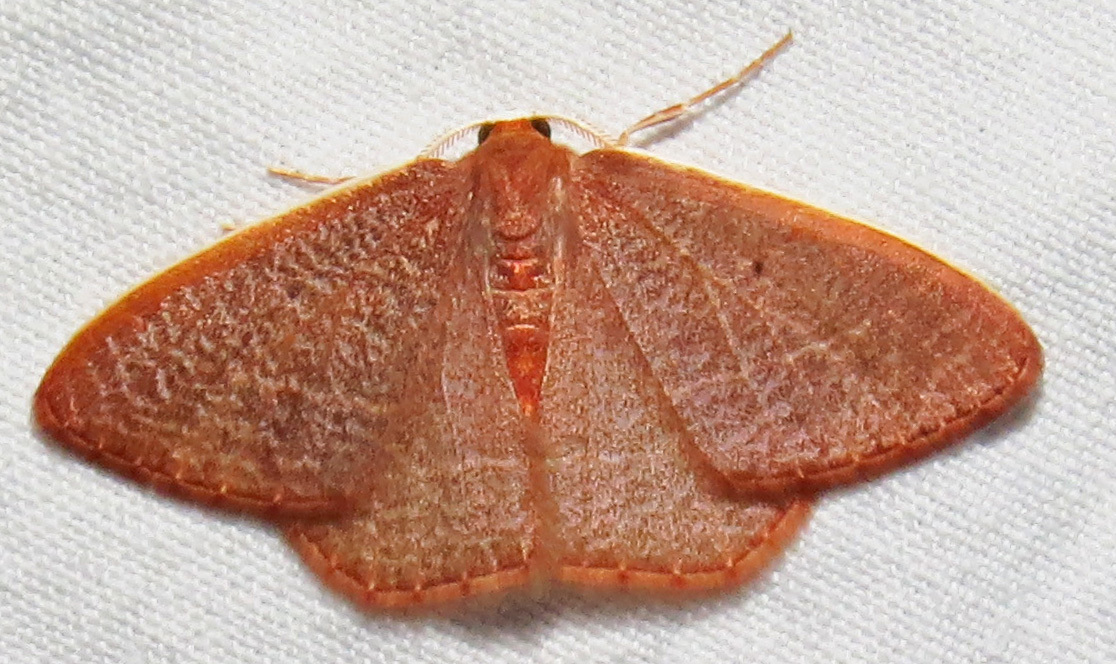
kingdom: Animalia
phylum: Arthropoda
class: Insecta
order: Lepidoptera
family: Geometridae
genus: Nemoria
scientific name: Nemoria bistriaria
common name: Red-fringed emerald
